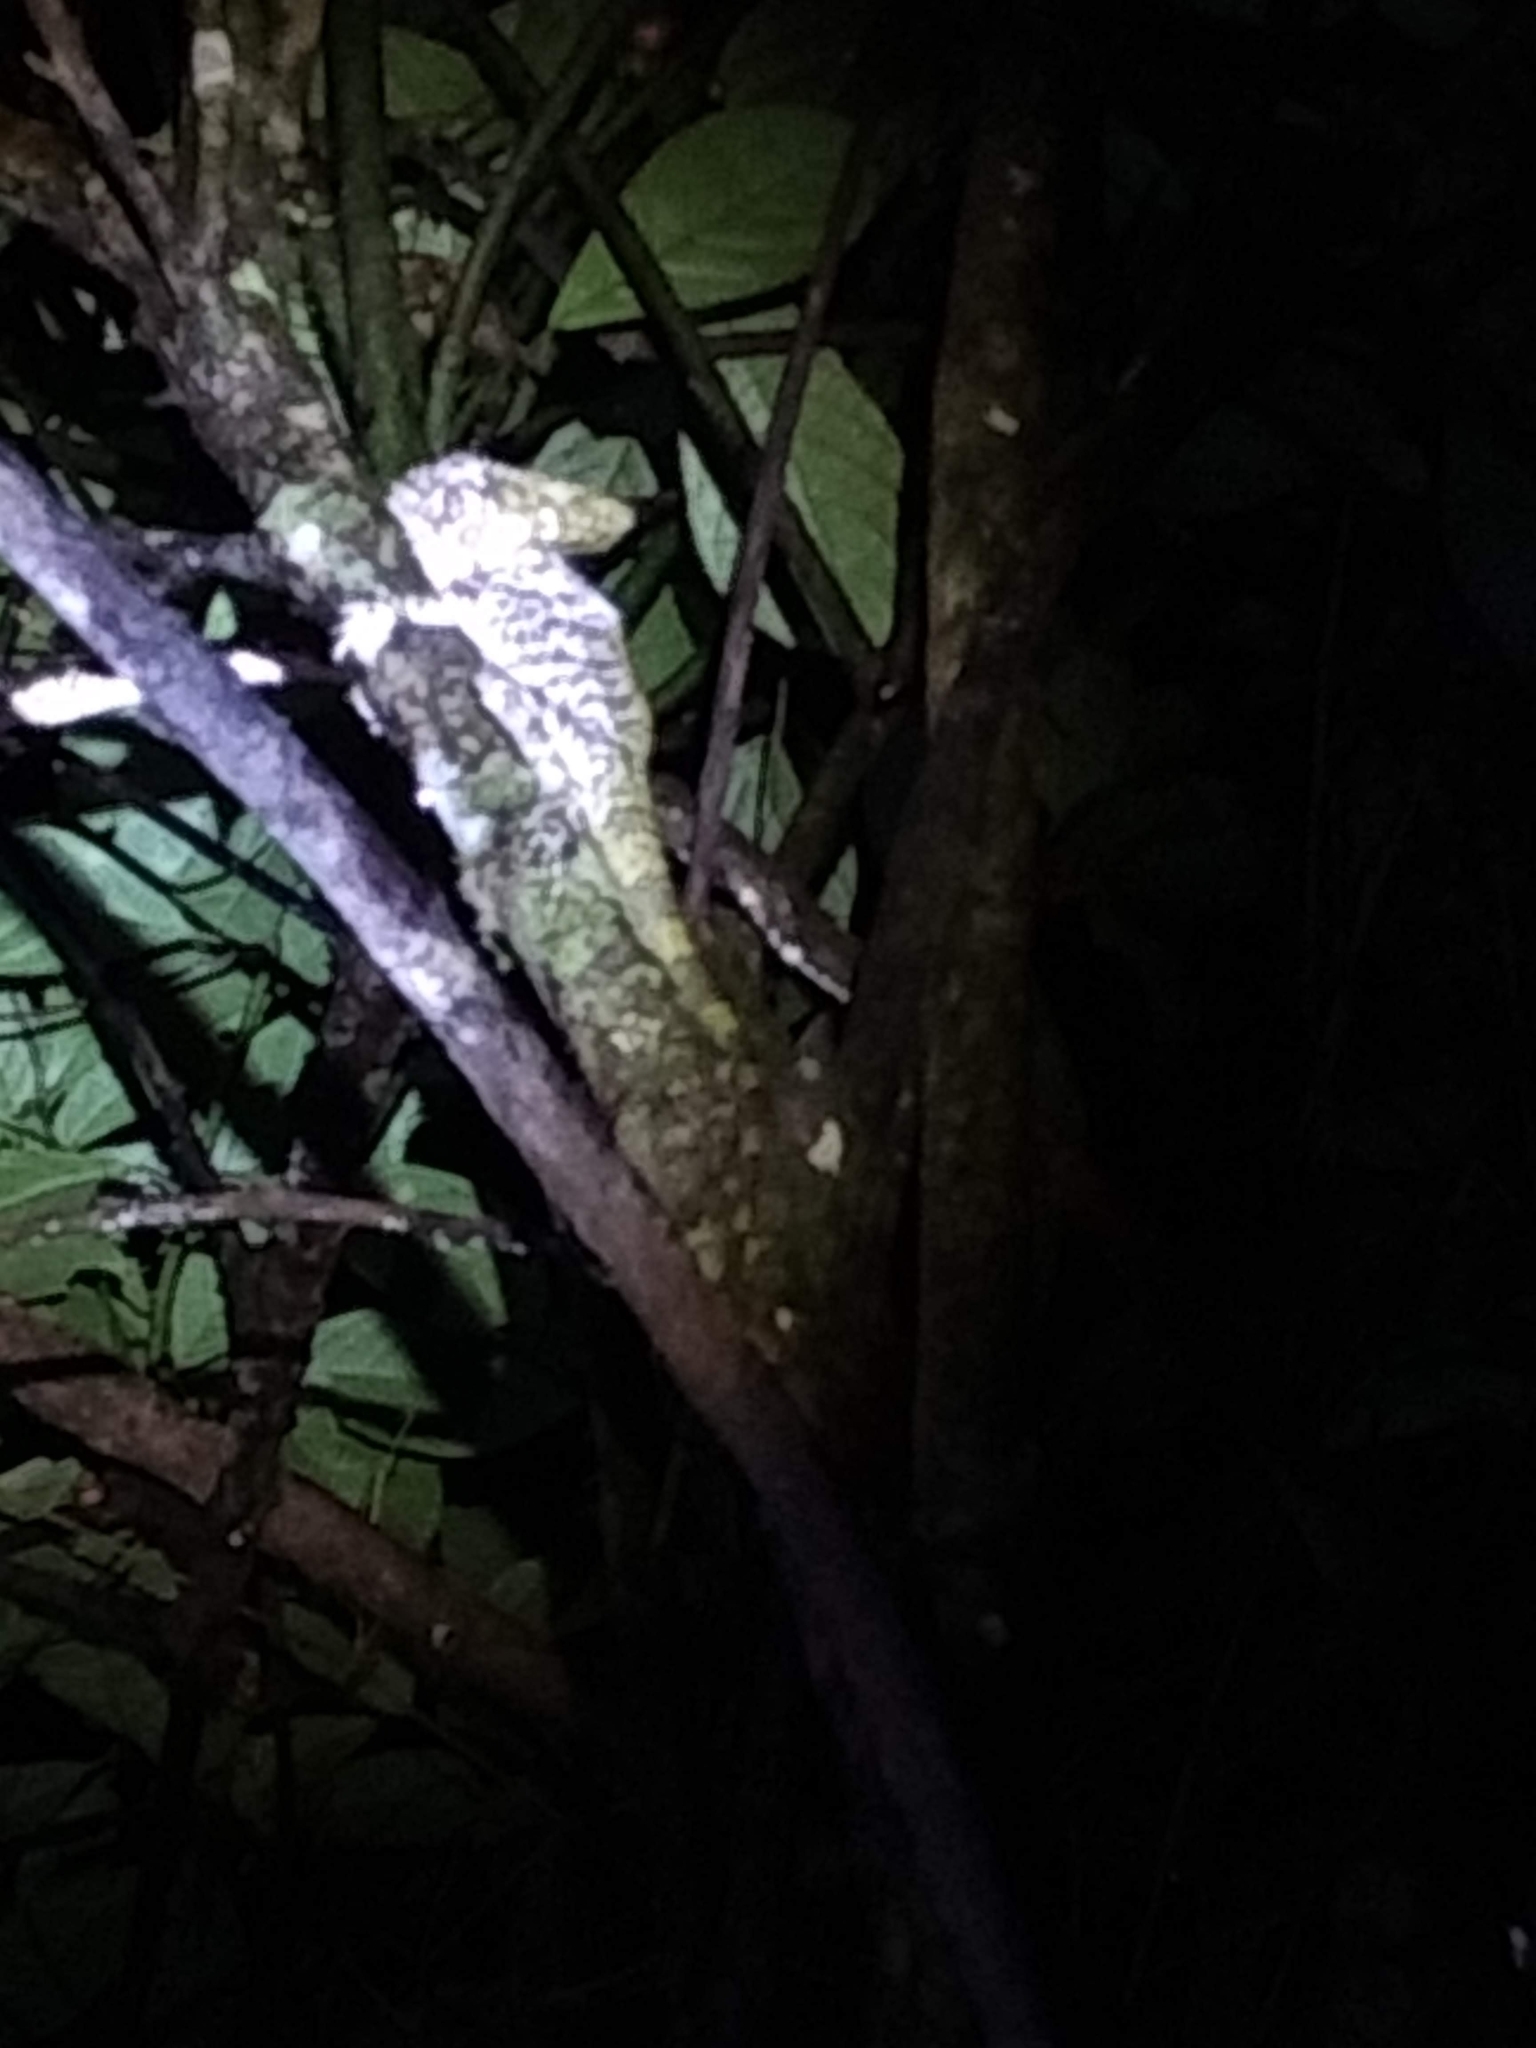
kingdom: Animalia
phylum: Chordata
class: Squamata
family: Corytophanidae
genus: Corytophanes
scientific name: Corytophanes cristatus
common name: Smooth helmeted iguana
